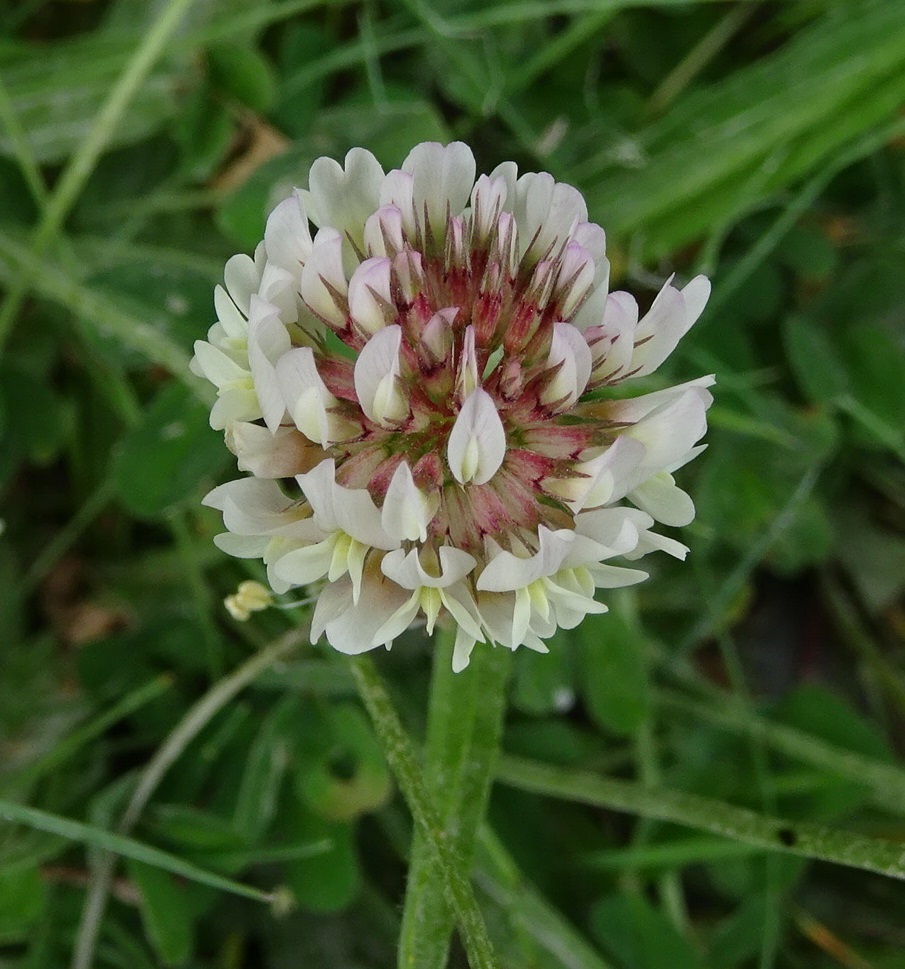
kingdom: Plantae
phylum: Tracheophyta
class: Magnoliopsida
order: Fabales
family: Fabaceae
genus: Trifolium
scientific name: Trifolium repens
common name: White clover
